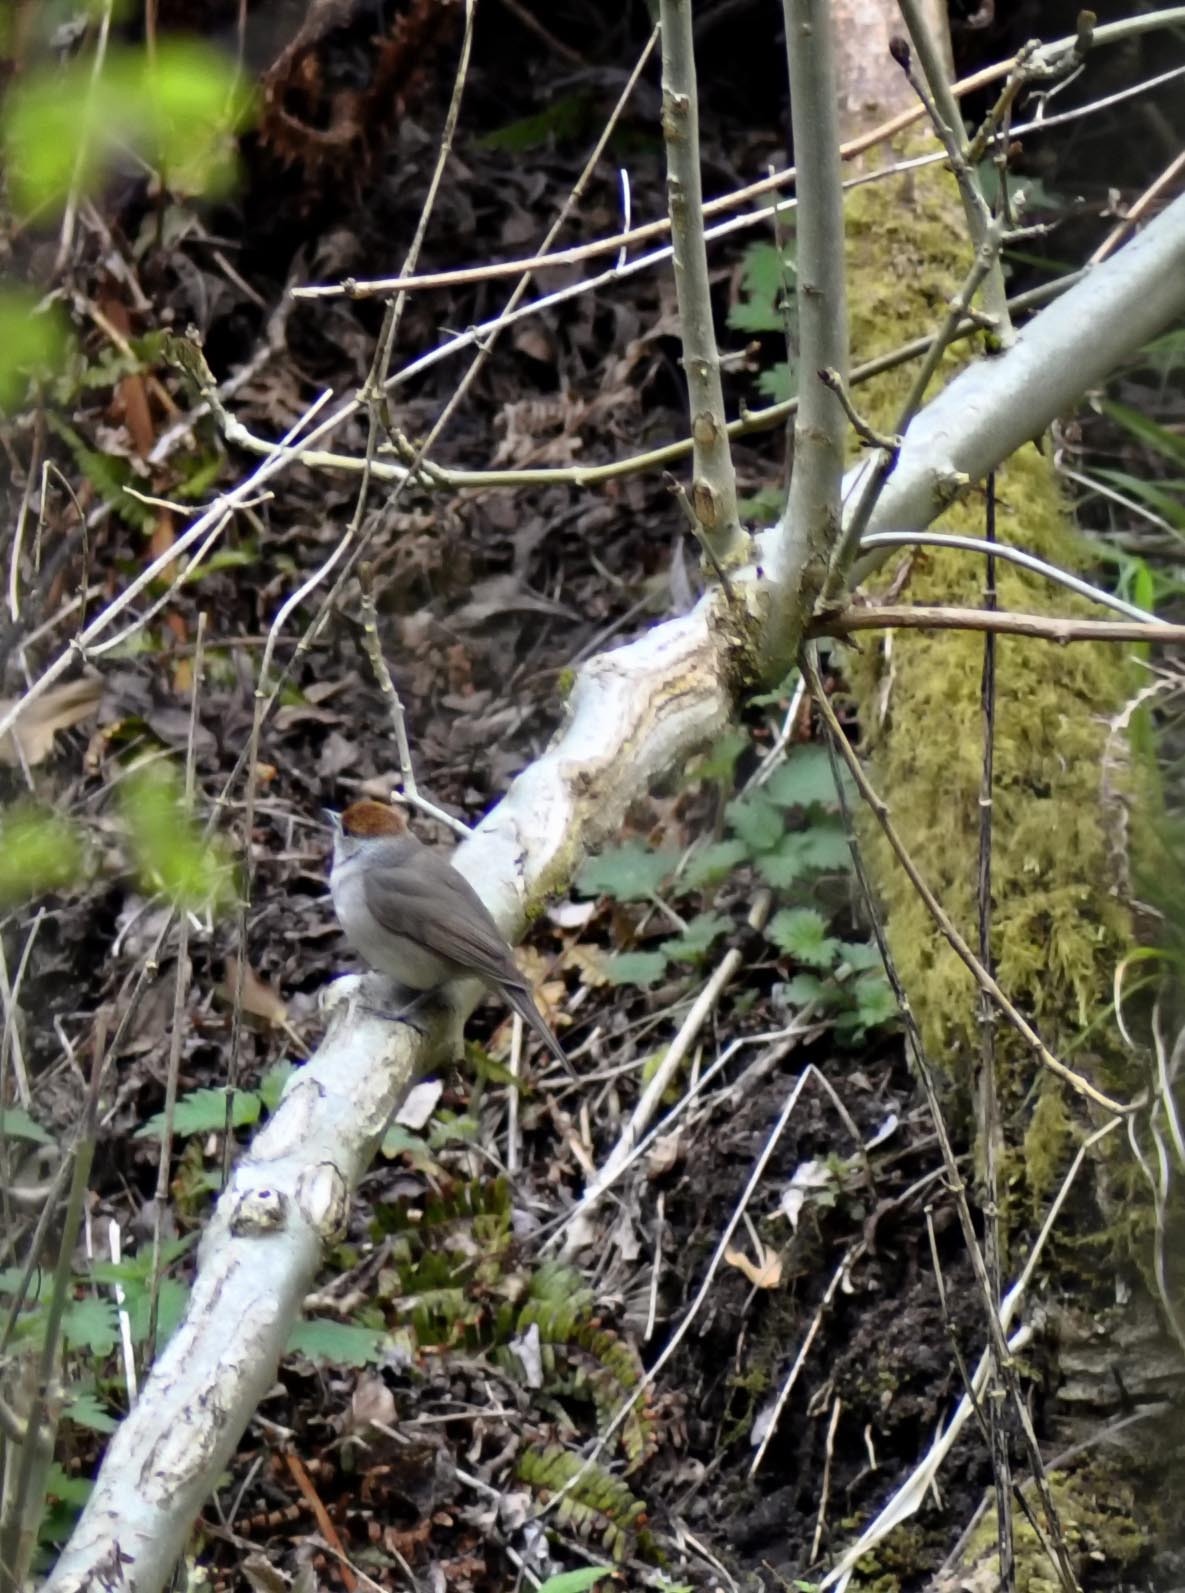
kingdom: Animalia
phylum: Chordata
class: Aves
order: Passeriformes
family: Sylviidae
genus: Sylvia
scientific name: Sylvia atricapilla
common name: Eurasian blackcap
